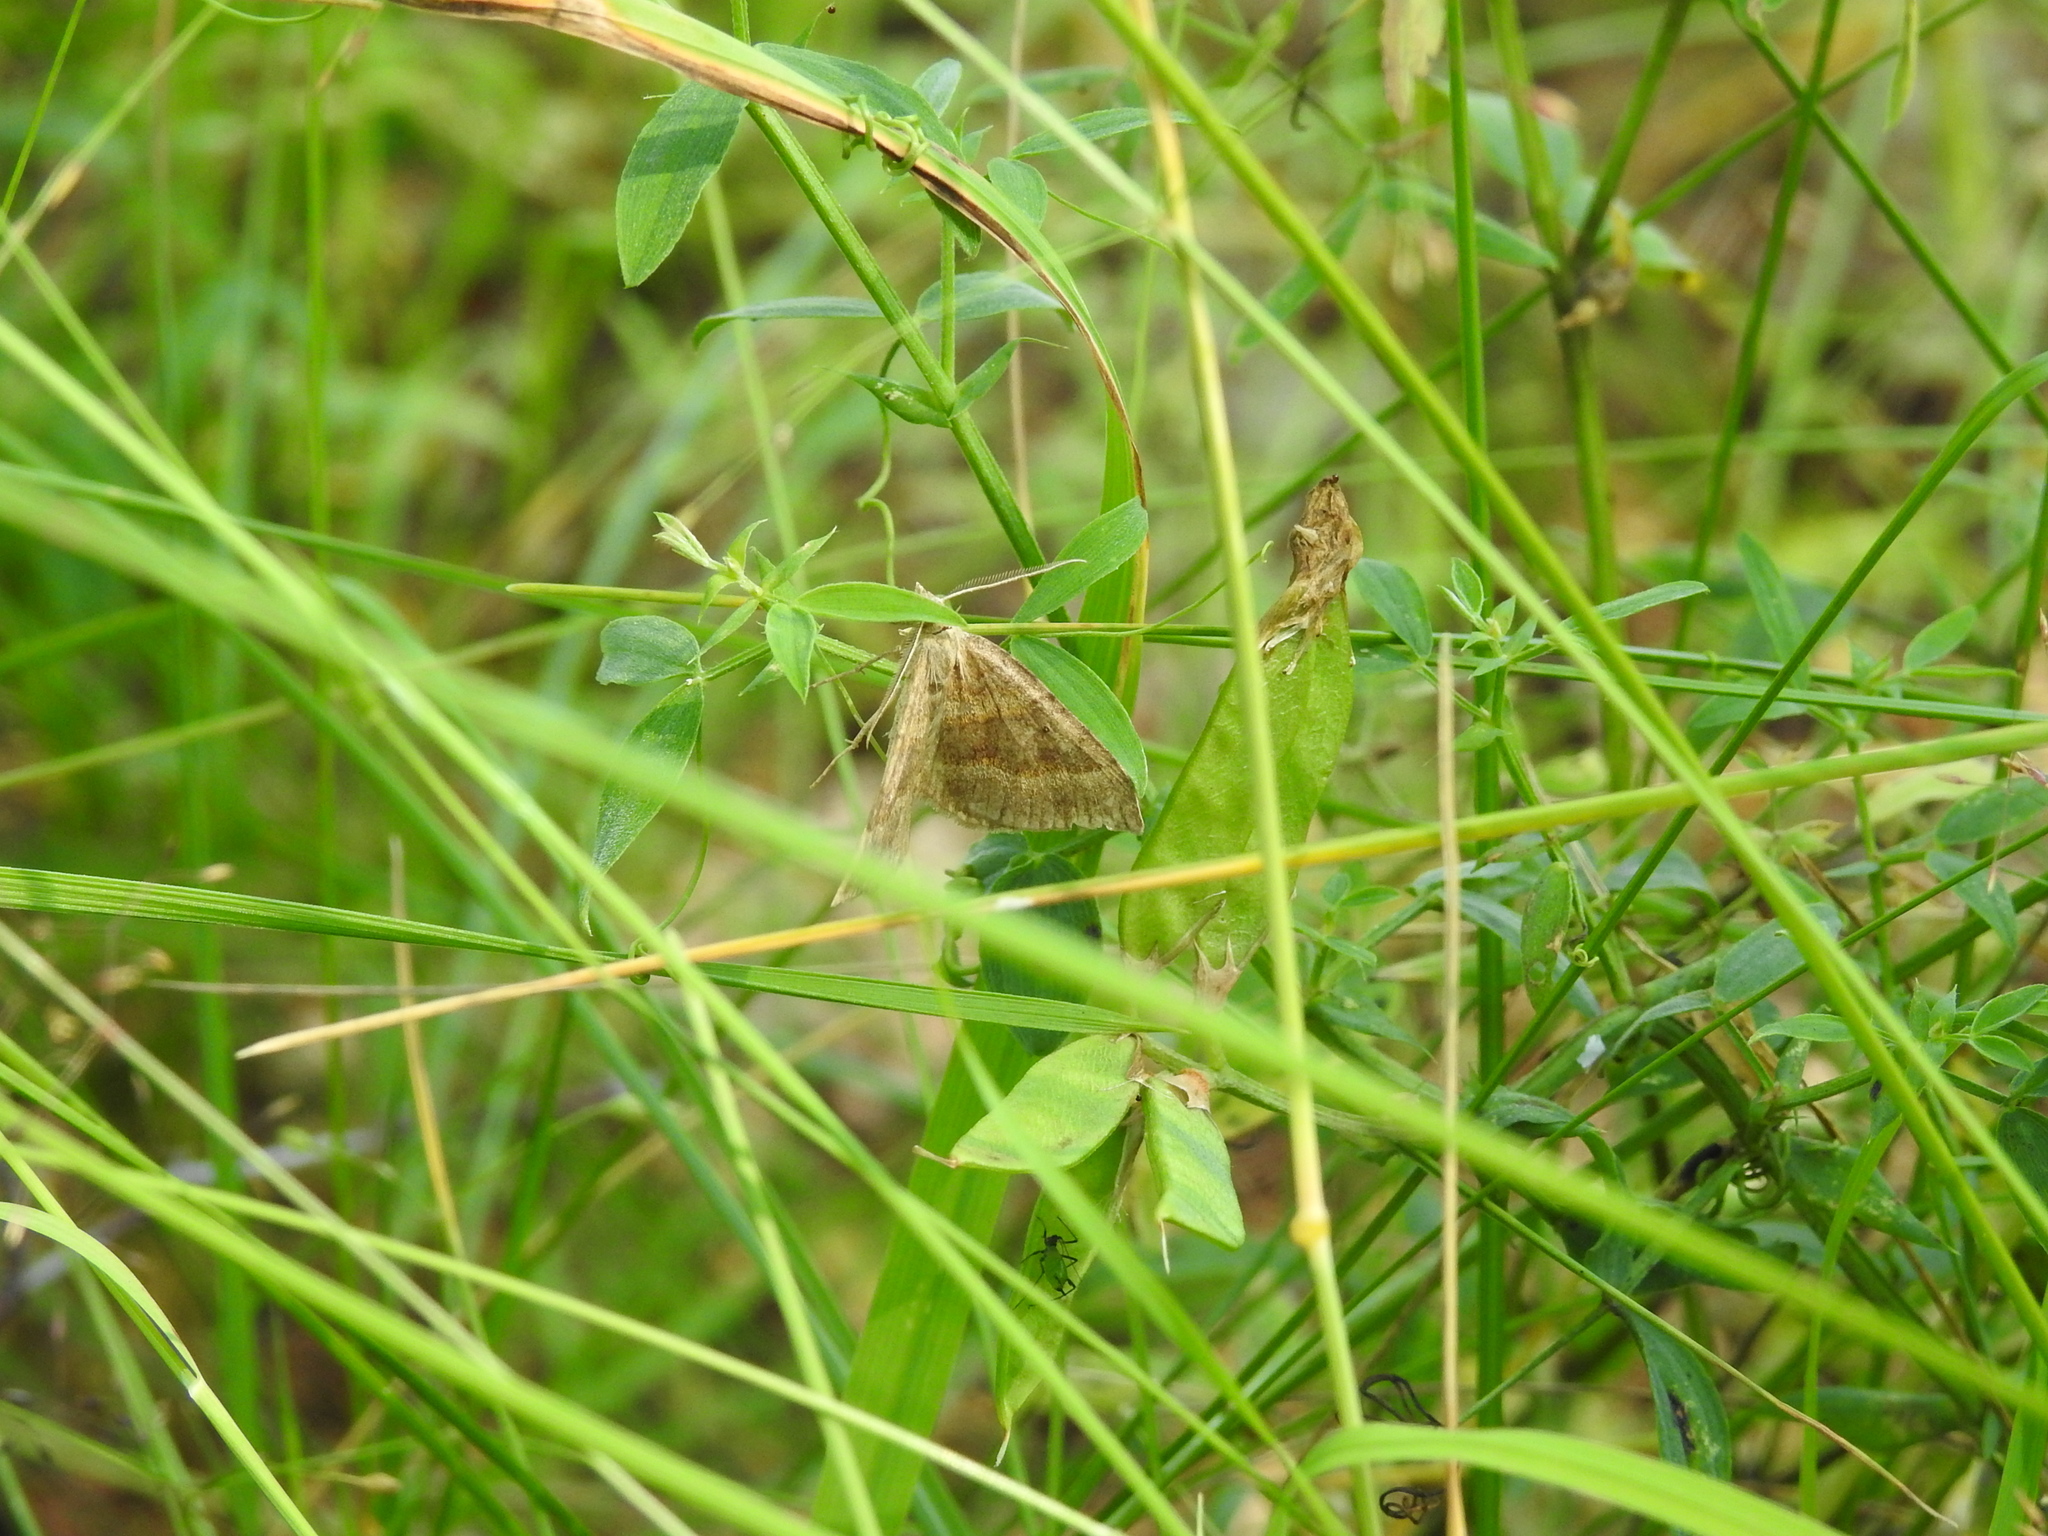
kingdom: Animalia
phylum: Arthropoda
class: Insecta
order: Lepidoptera
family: Geometridae
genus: Scotopteryx
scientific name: Scotopteryx chenopodiata
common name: Shaded broad-bar
